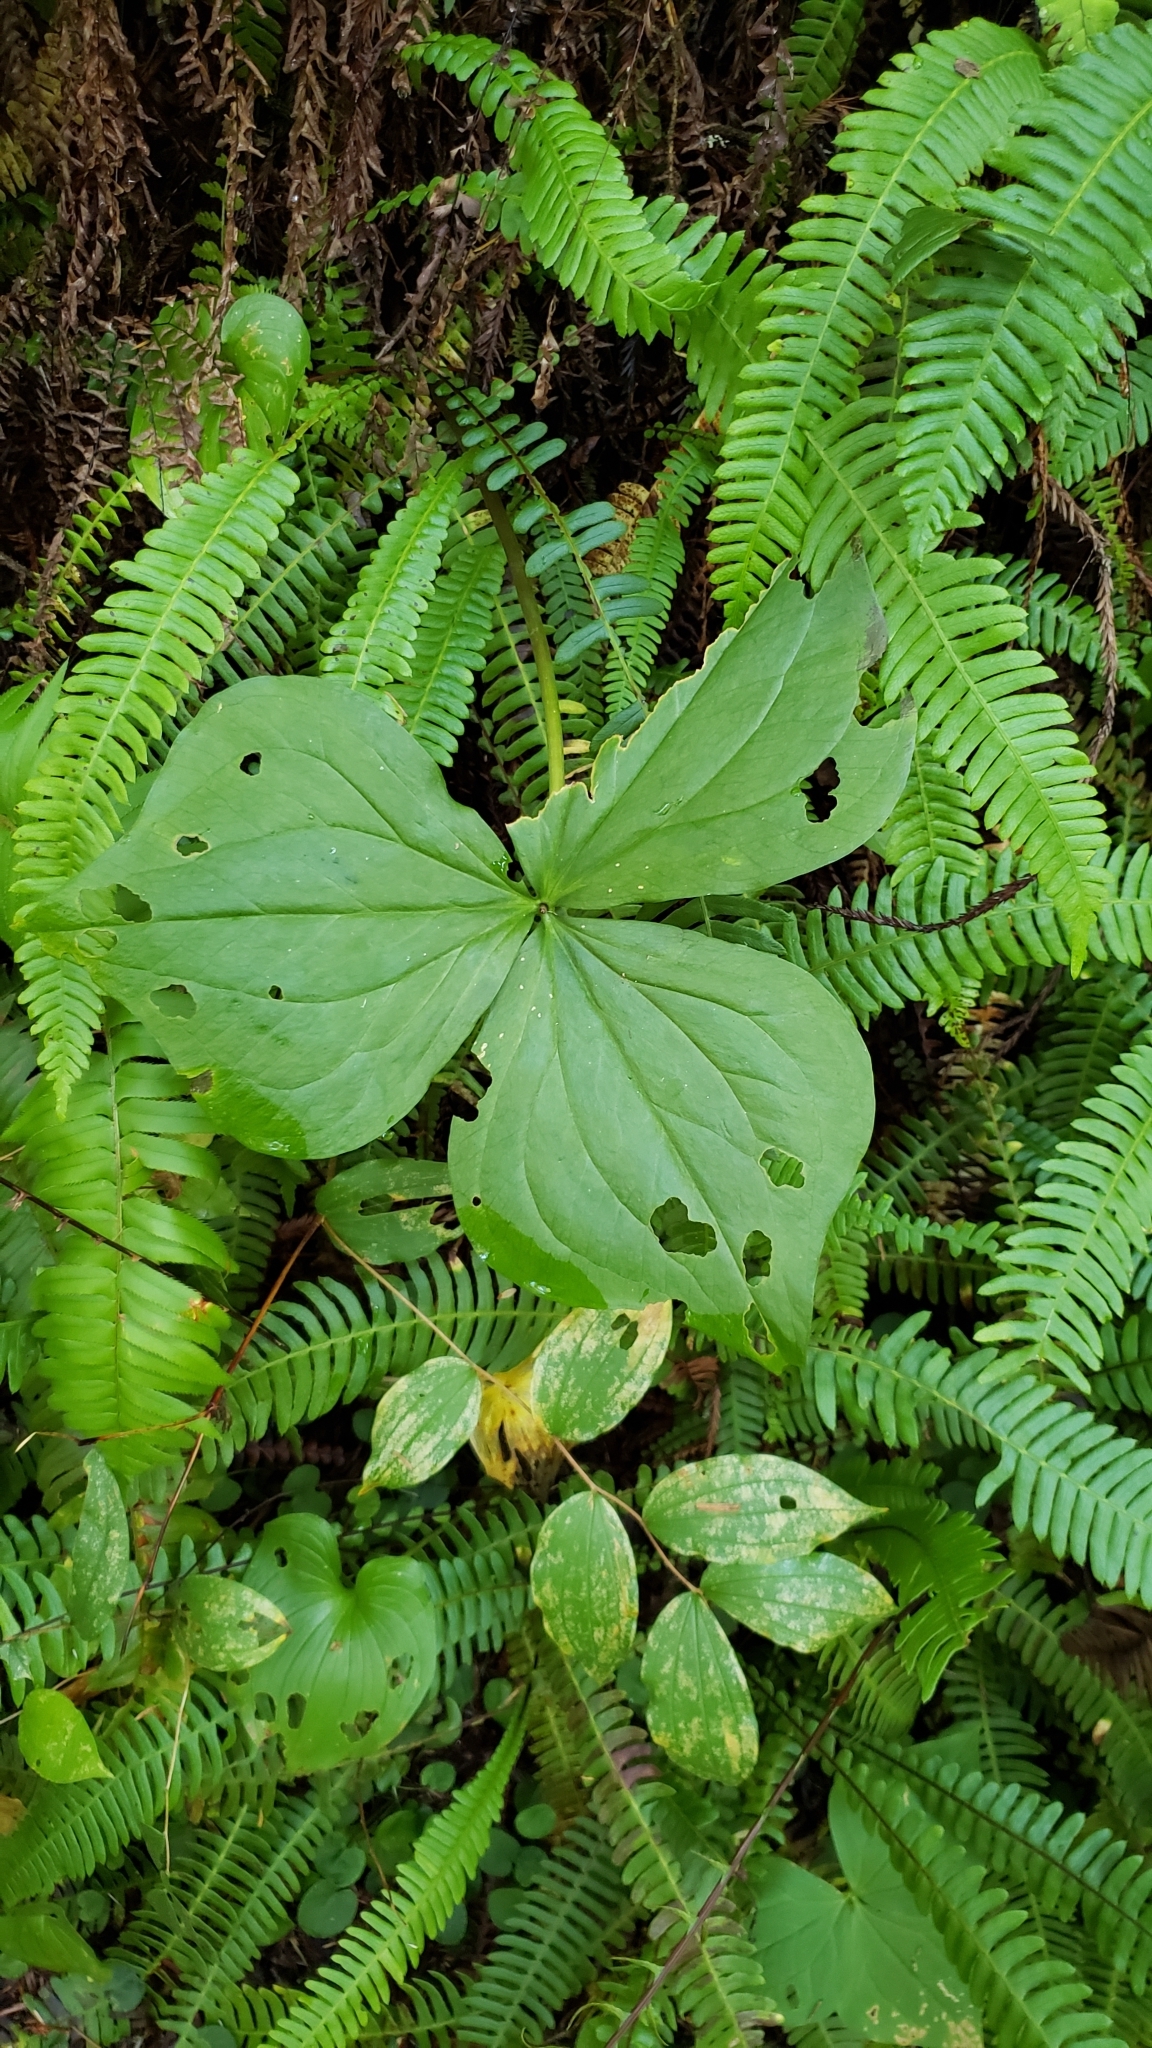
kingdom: Plantae
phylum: Tracheophyta
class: Liliopsida
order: Liliales
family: Melanthiaceae
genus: Trillium
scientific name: Trillium ovatum
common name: Pacific trillium
